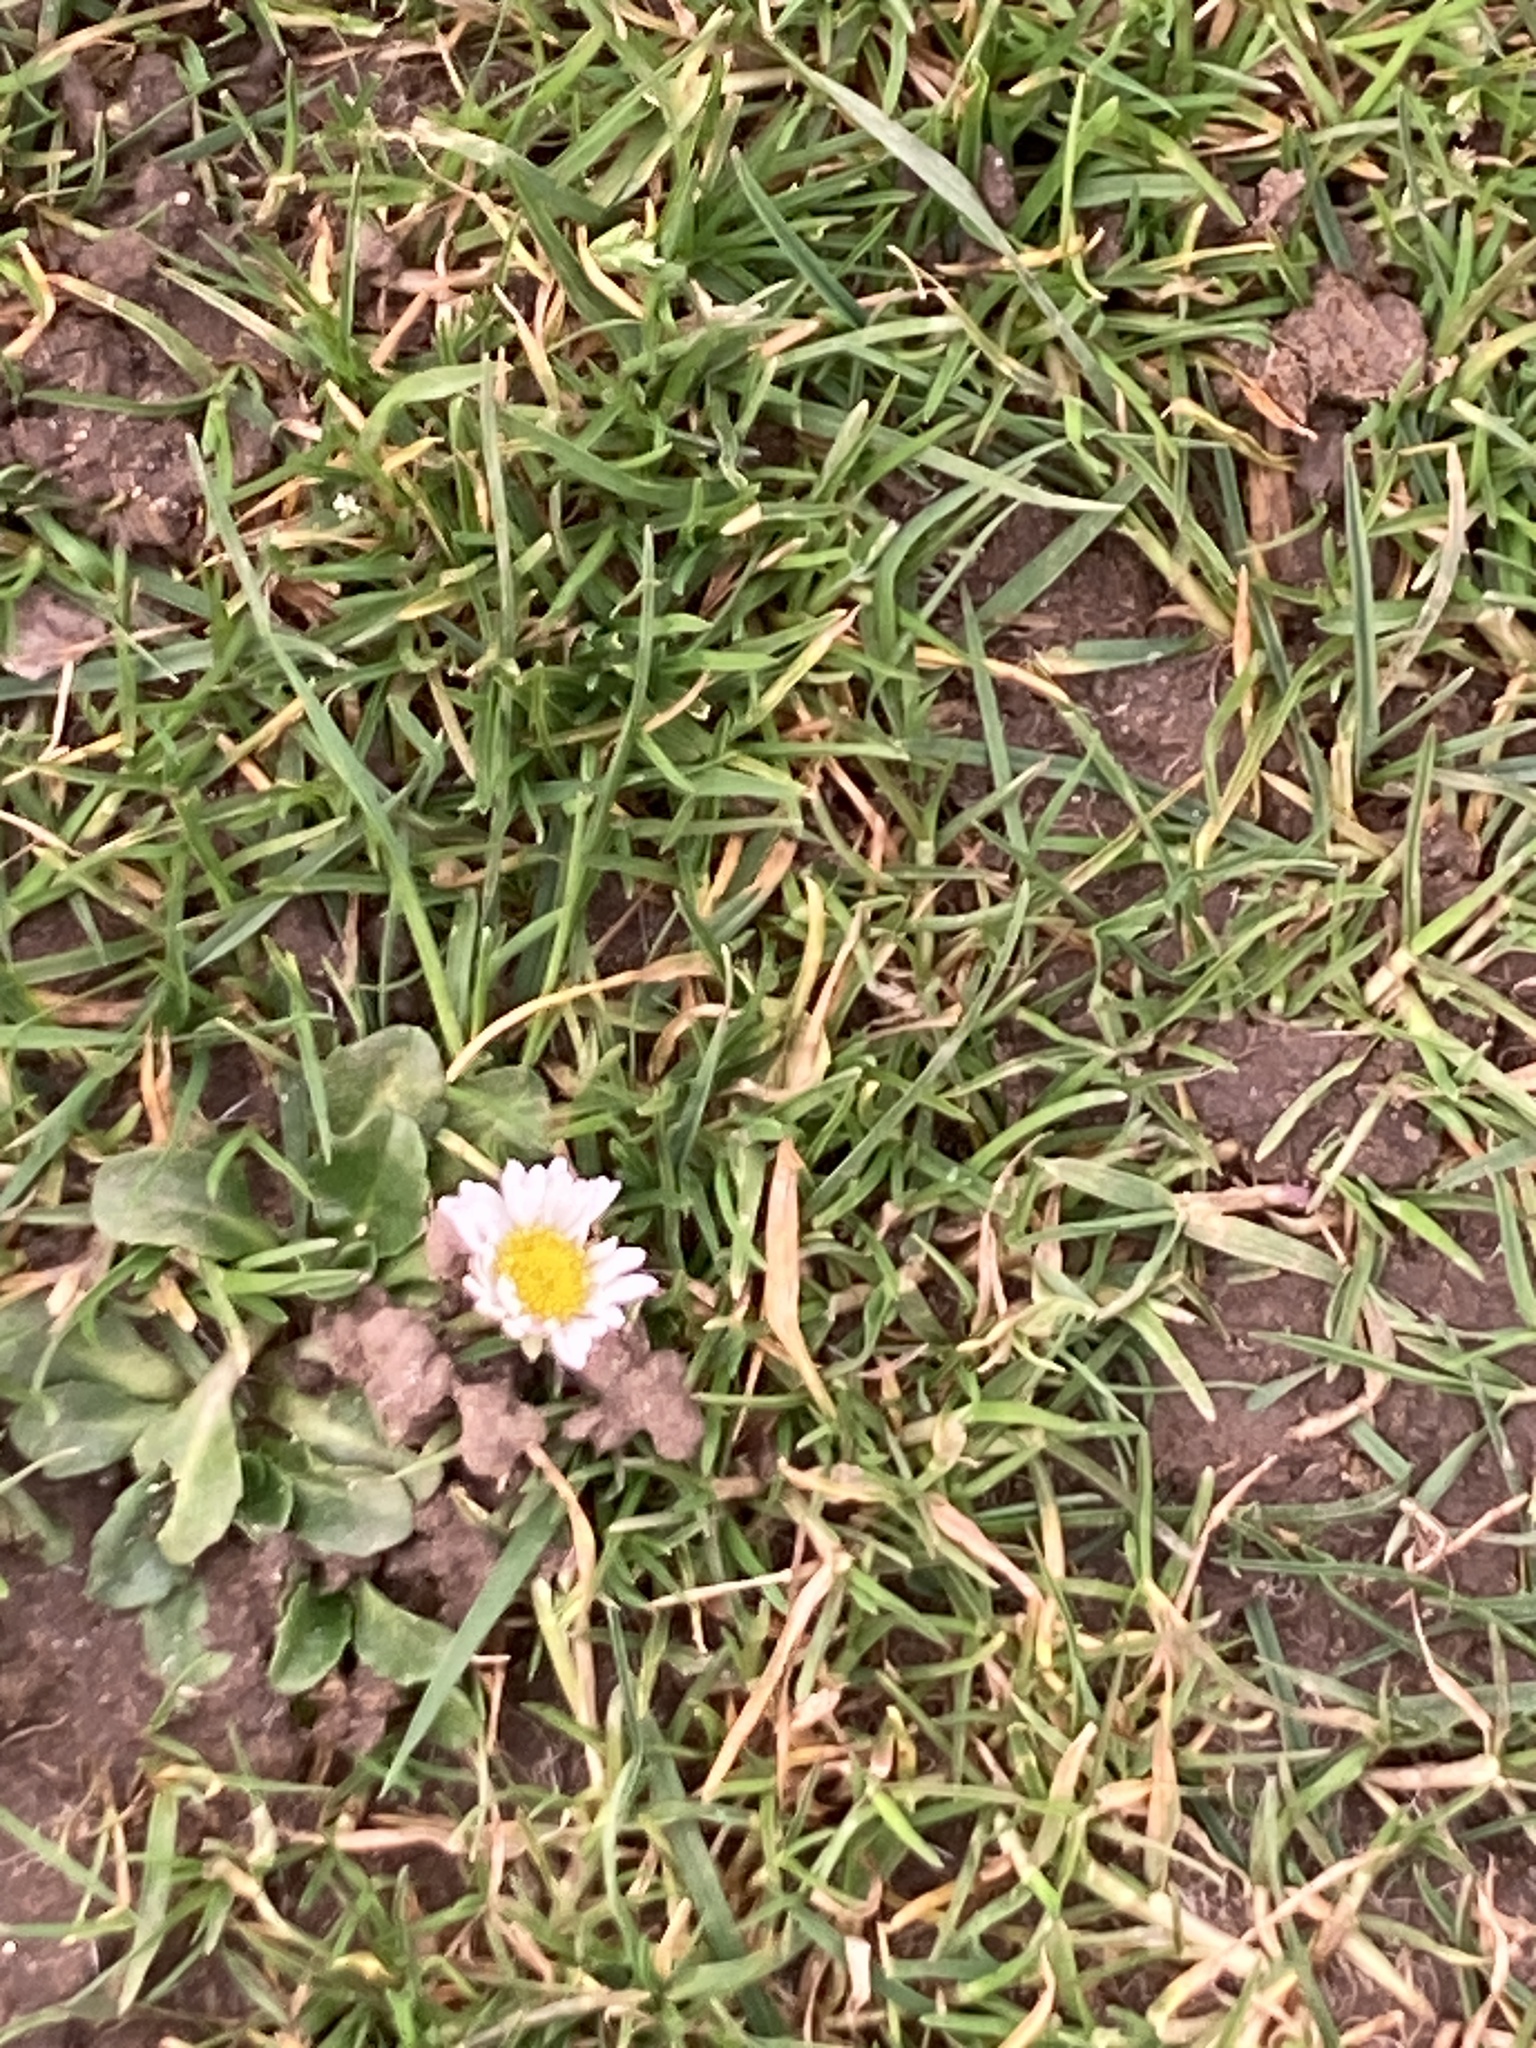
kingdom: Plantae
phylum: Tracheophyta
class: Magnoliopsida
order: Asterales
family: Asteraceae
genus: Bellis
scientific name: Bellis perennis
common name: Lawndaisy
